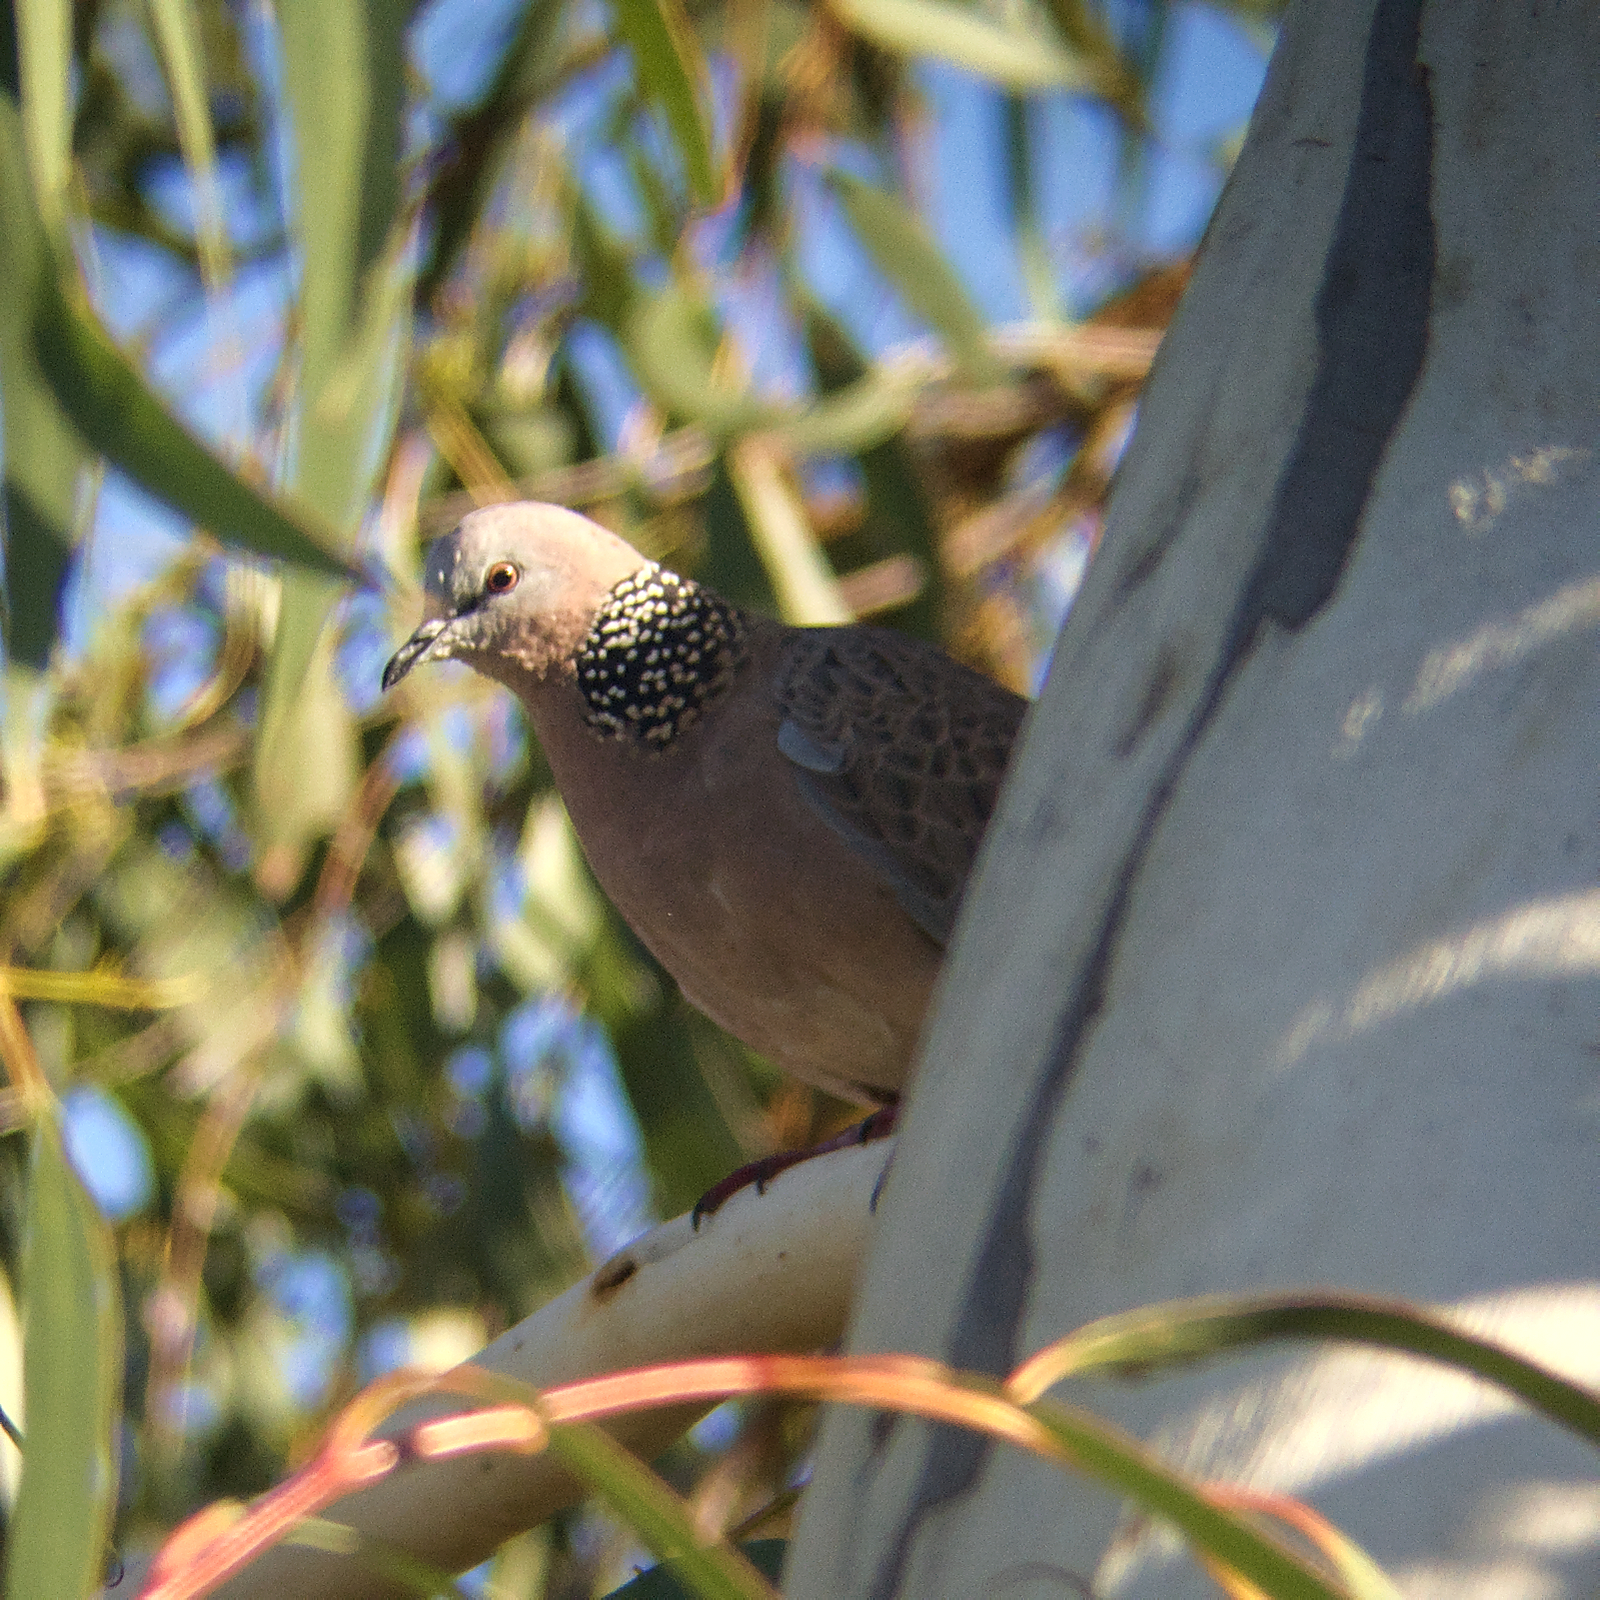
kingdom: Animalia
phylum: Chordata
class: Aves
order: Columbiformes
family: Columbidae
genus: Spilopelia
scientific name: Spilopelia chinensis
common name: Spotted dove
